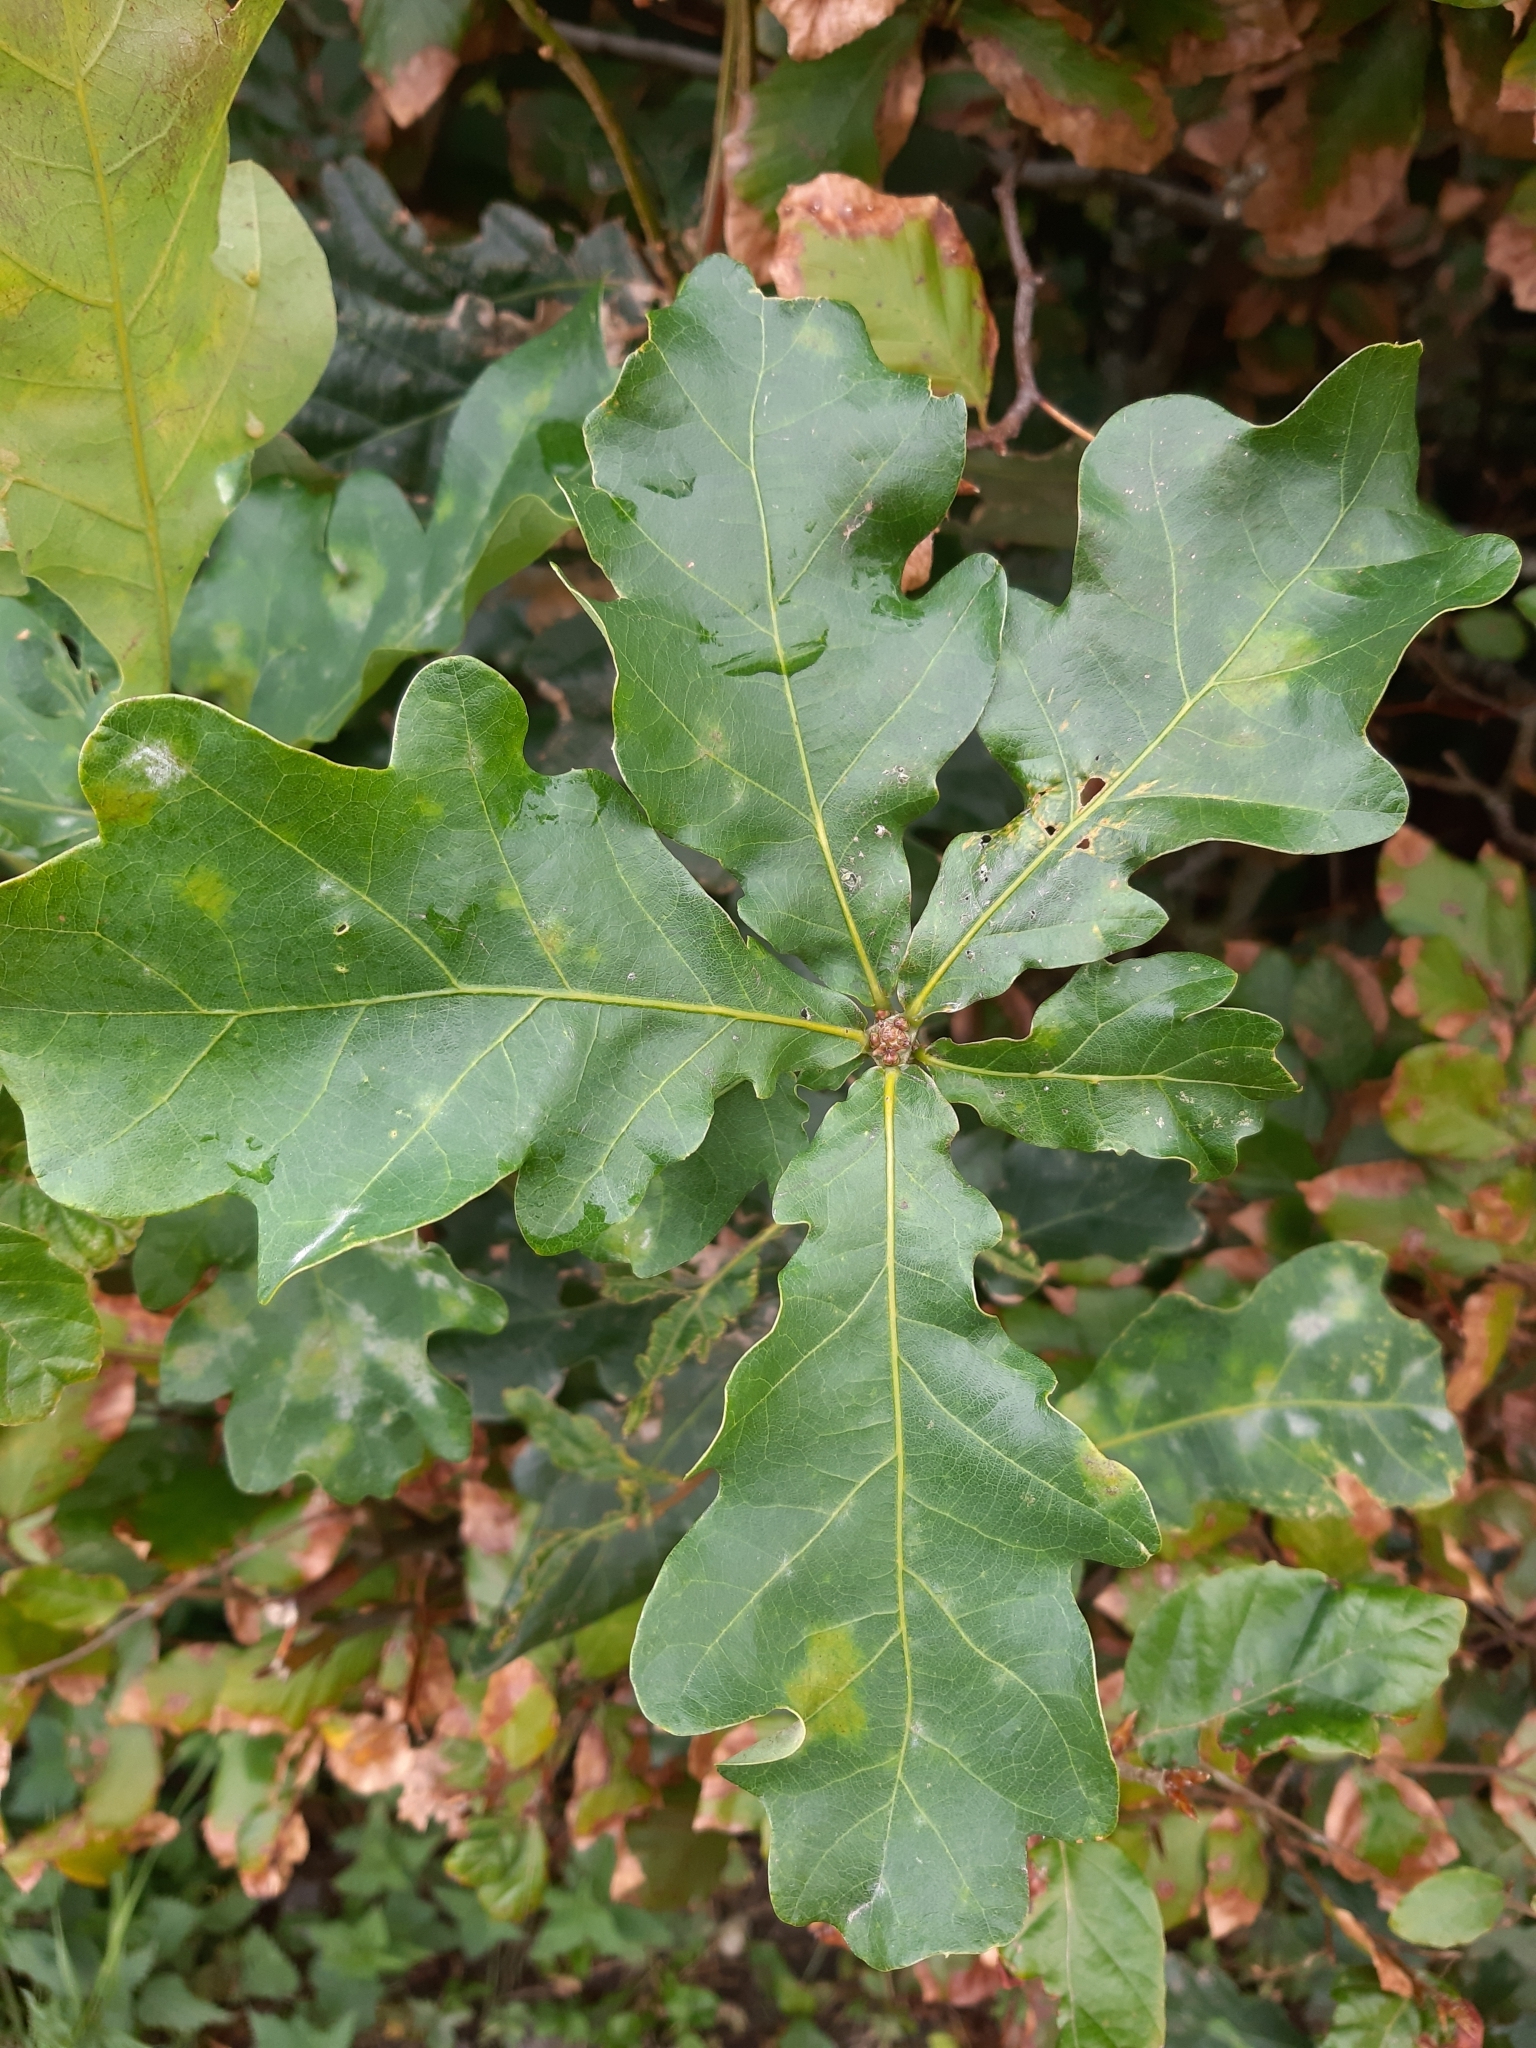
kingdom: Plantae
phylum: Tracheophyta
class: Magnoliopsida
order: Fagales
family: Fagaceae
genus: Quercus
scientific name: Quercus robur
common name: Pedunculate oak
